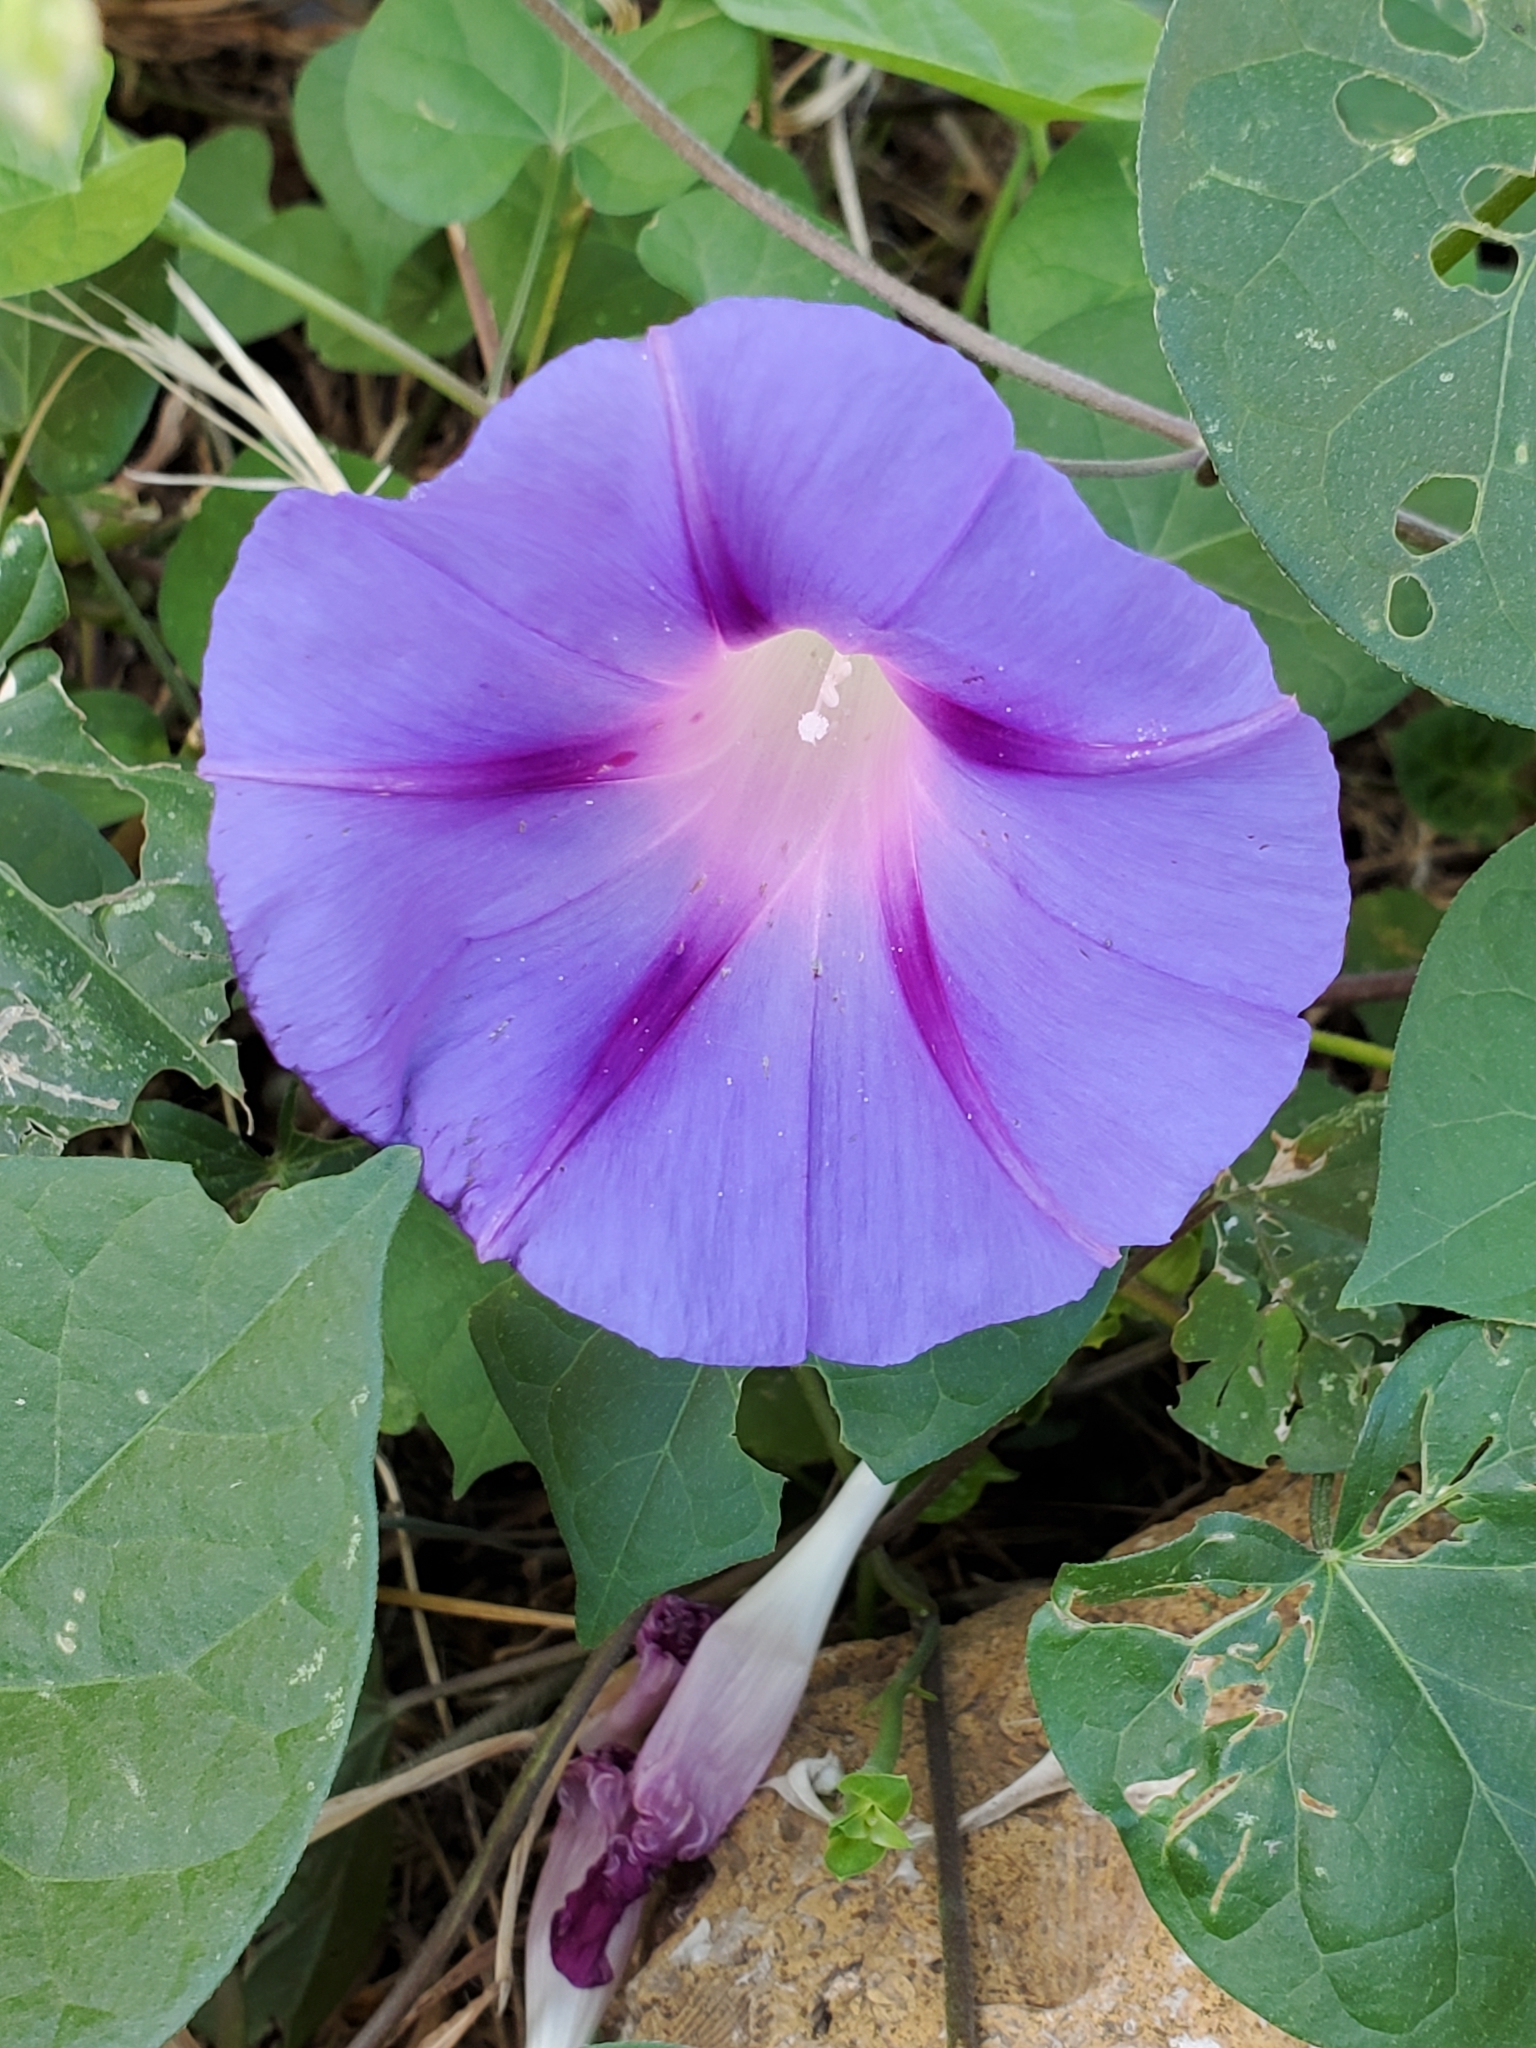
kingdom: Plantae
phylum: Tracheophyta
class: Magnoliopsida
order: Solanales
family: Convolvulaceae
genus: Ipomoea
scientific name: Ipomoea purpurea
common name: Common morning-glory
